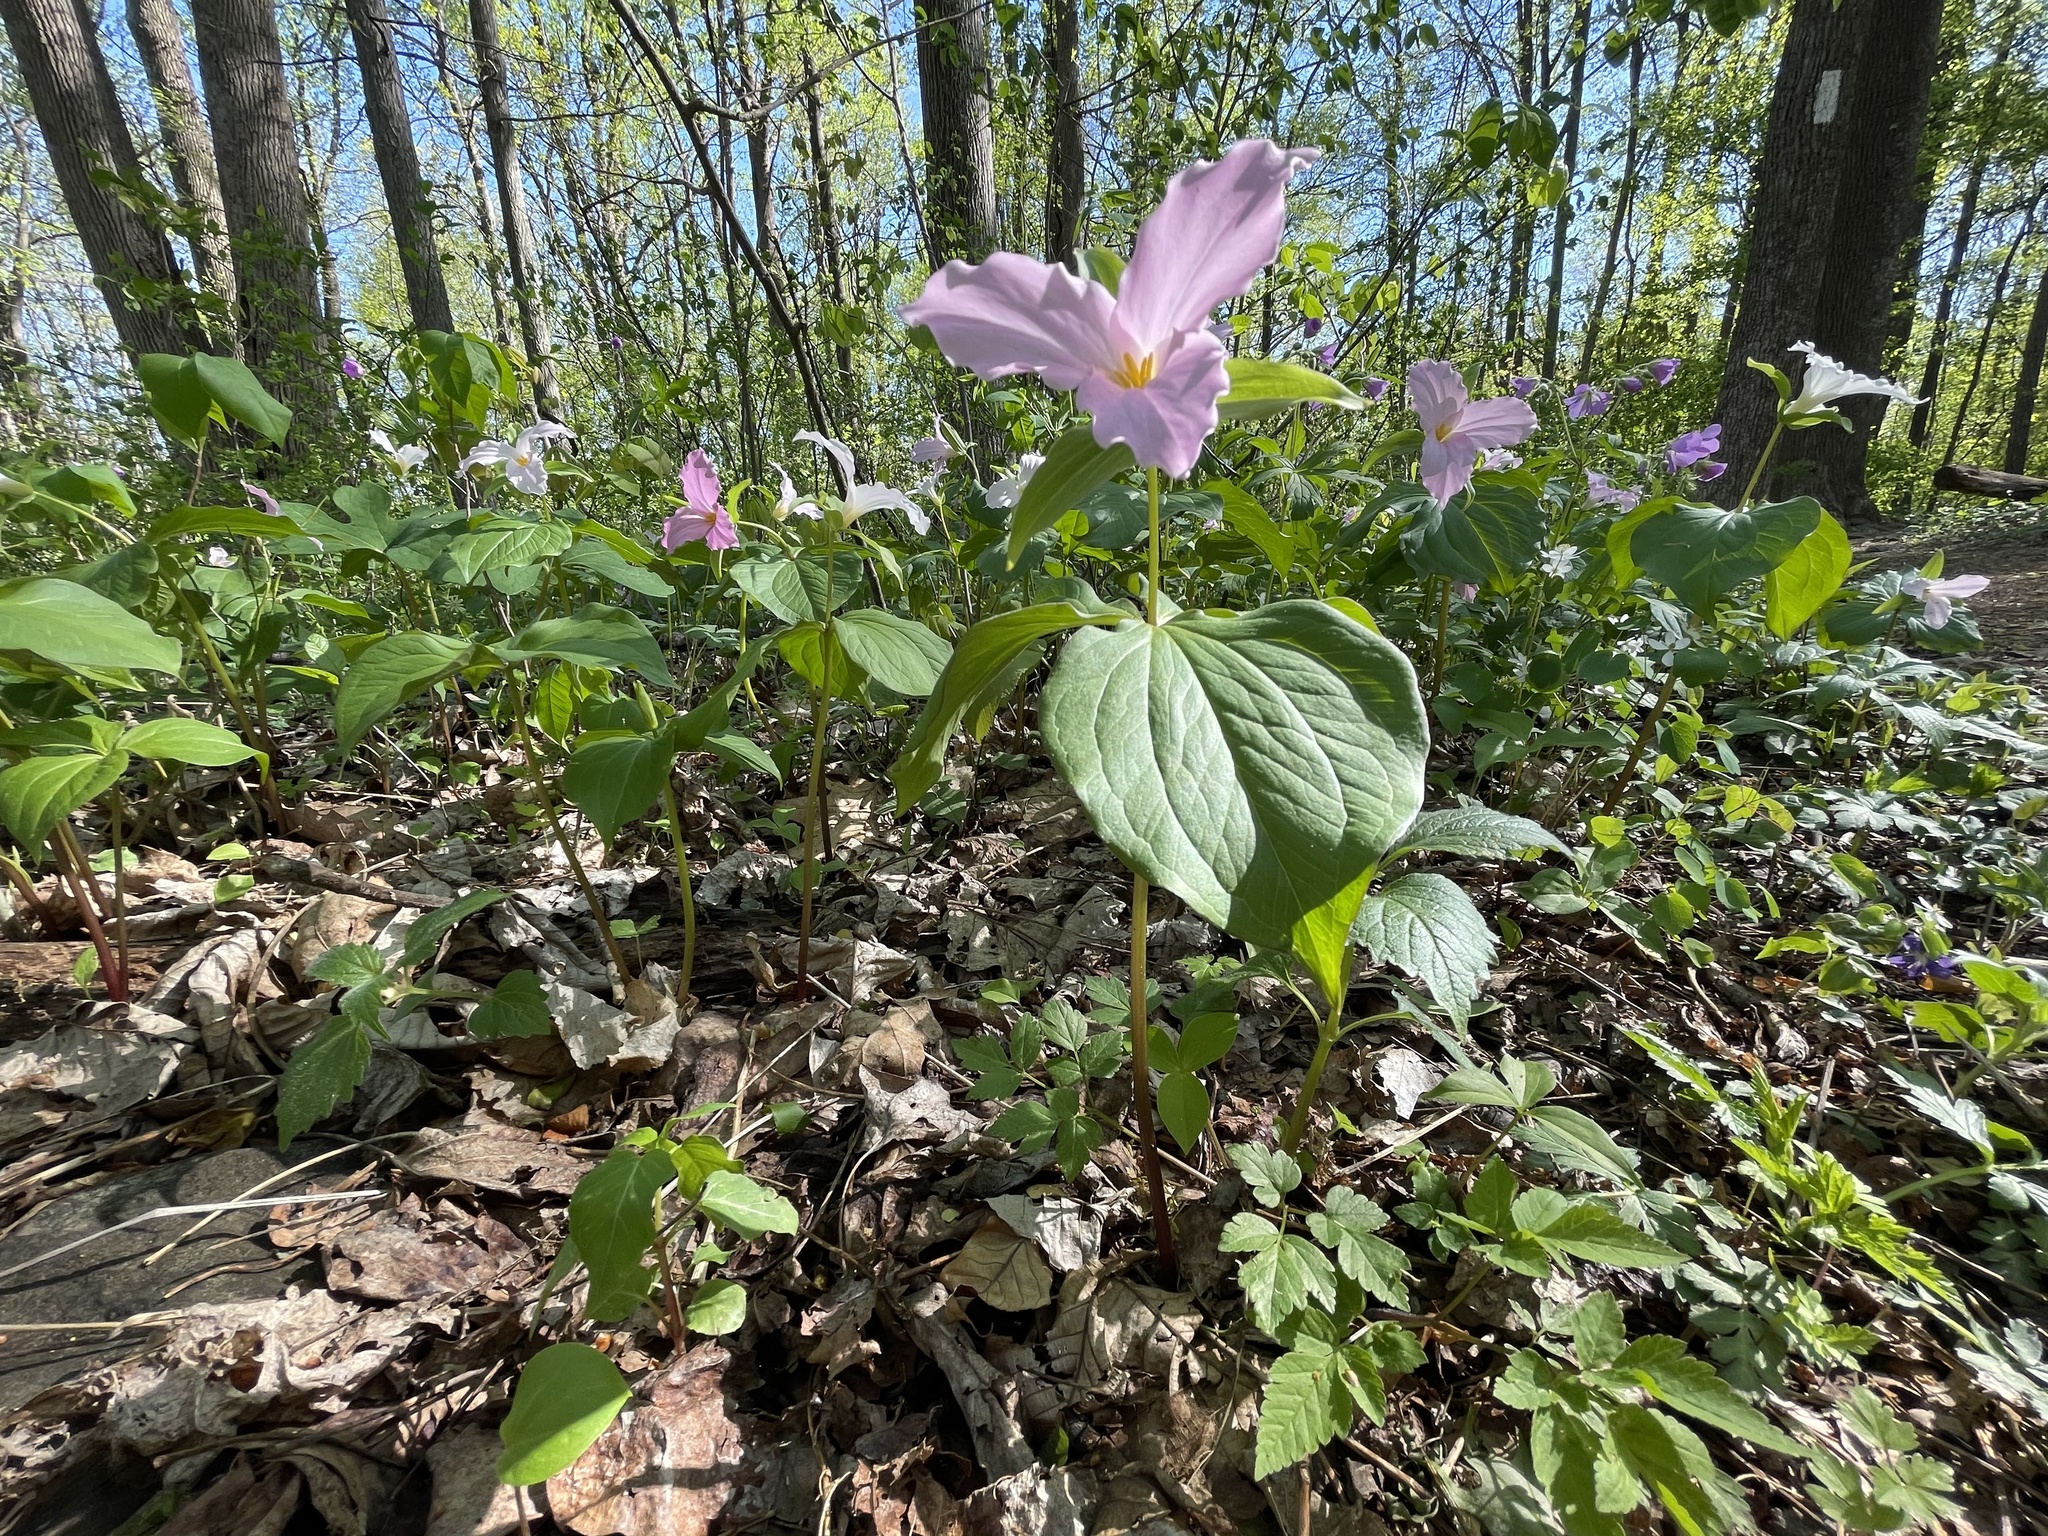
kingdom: Plantae
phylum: Tracheophyta
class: Liliopsida
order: Liliales
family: Melanthiaceae
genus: Trillium
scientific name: Trillium grandiflorum
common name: Great white trillium
